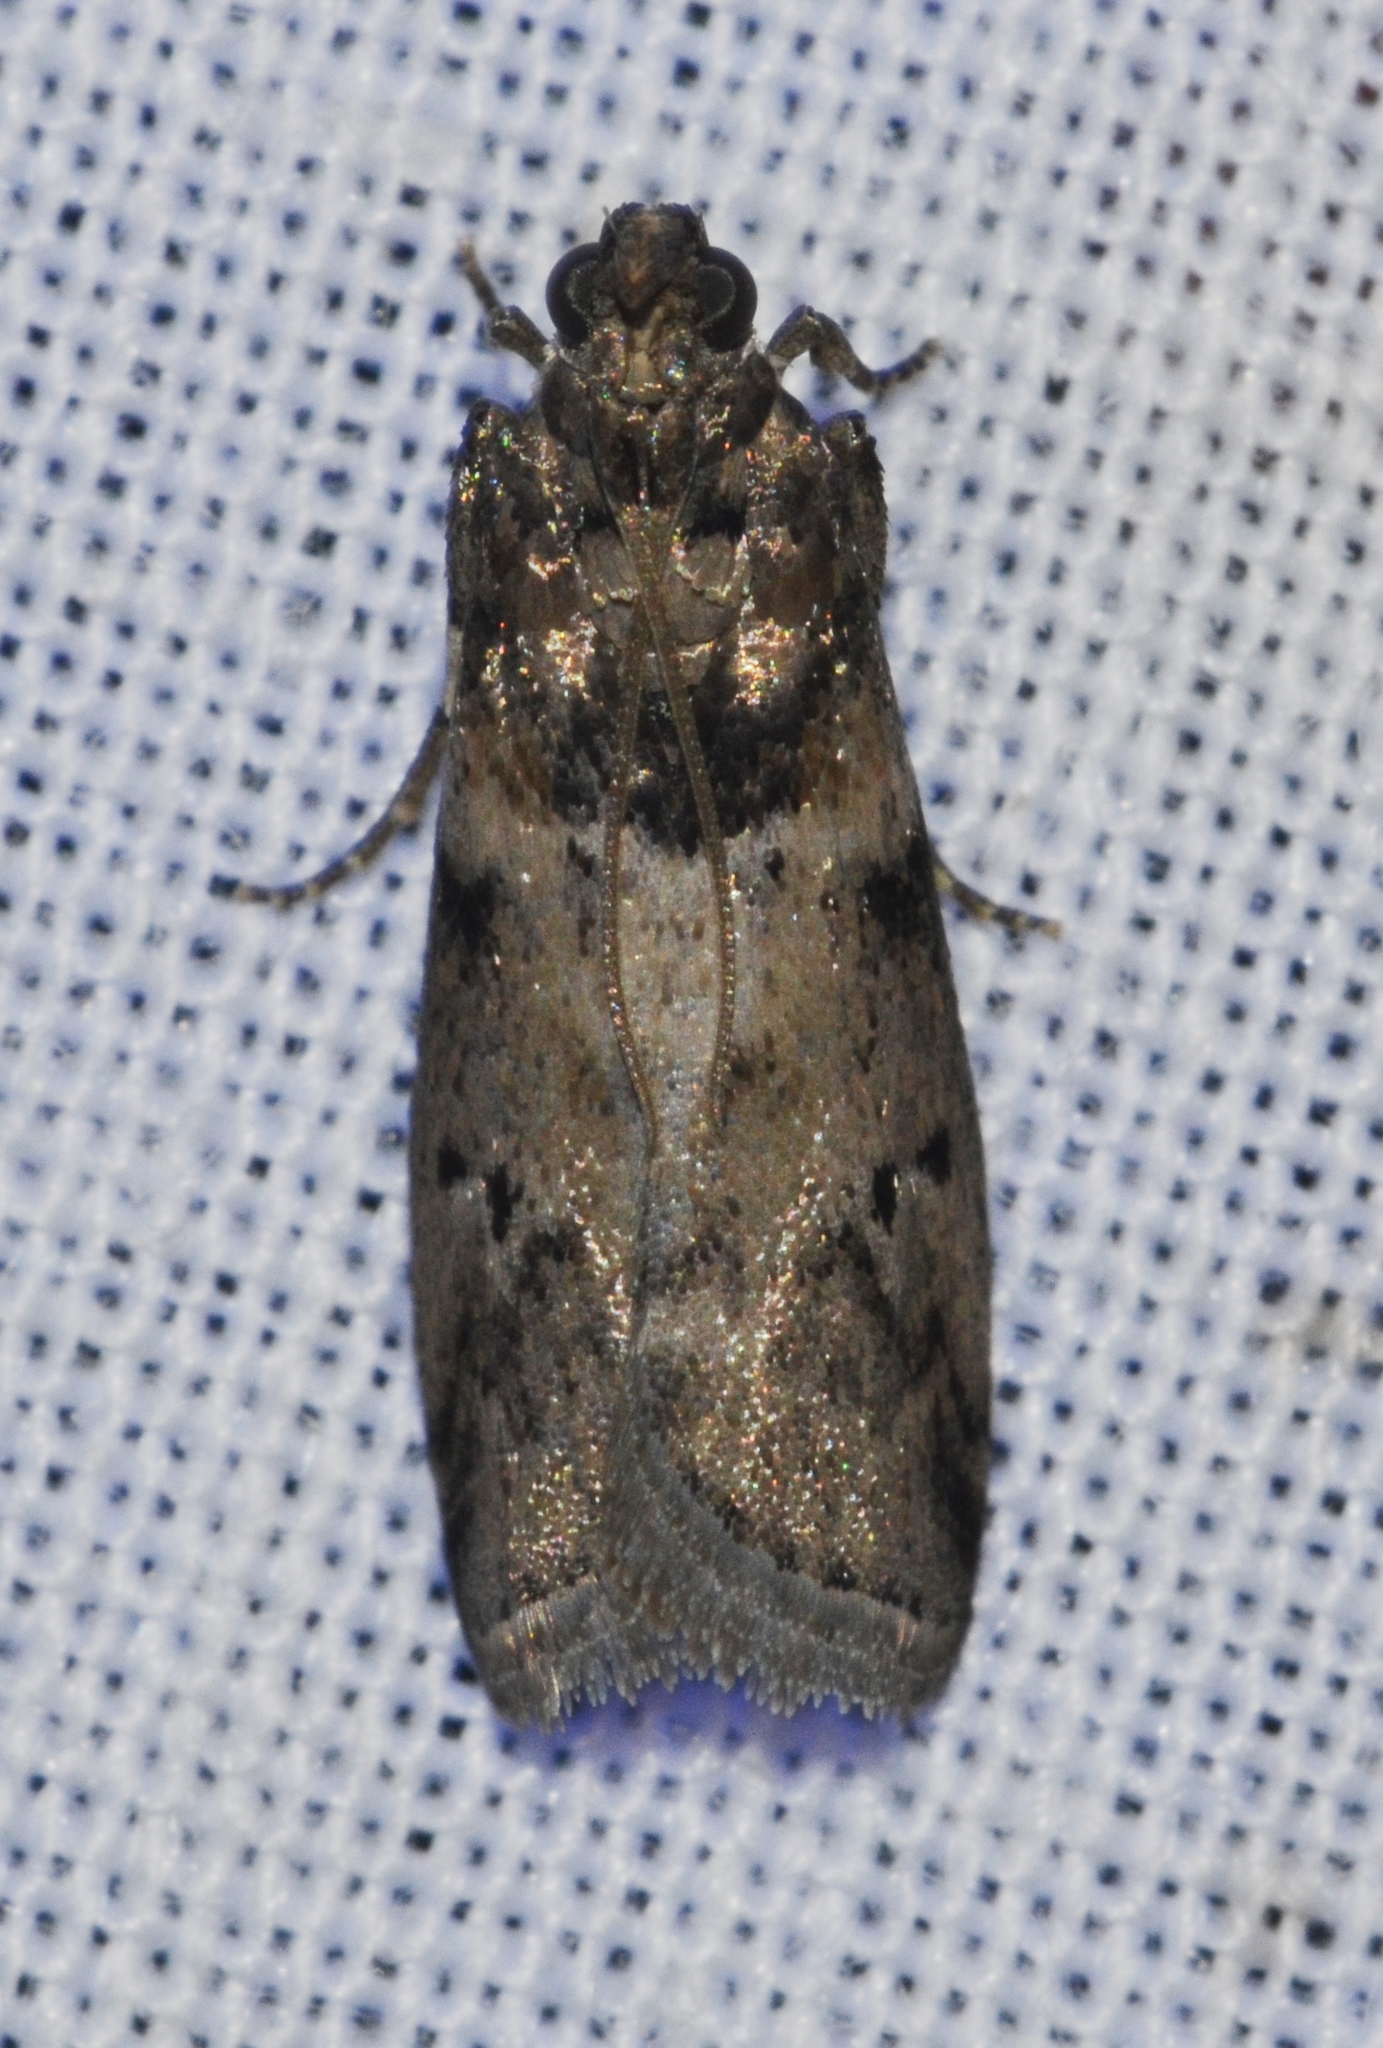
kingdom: Animalia
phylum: Arthropoda
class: Insecta
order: Lepidoptera
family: Pyralidae
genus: Salebriaria
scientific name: Salebriaria annulosella
